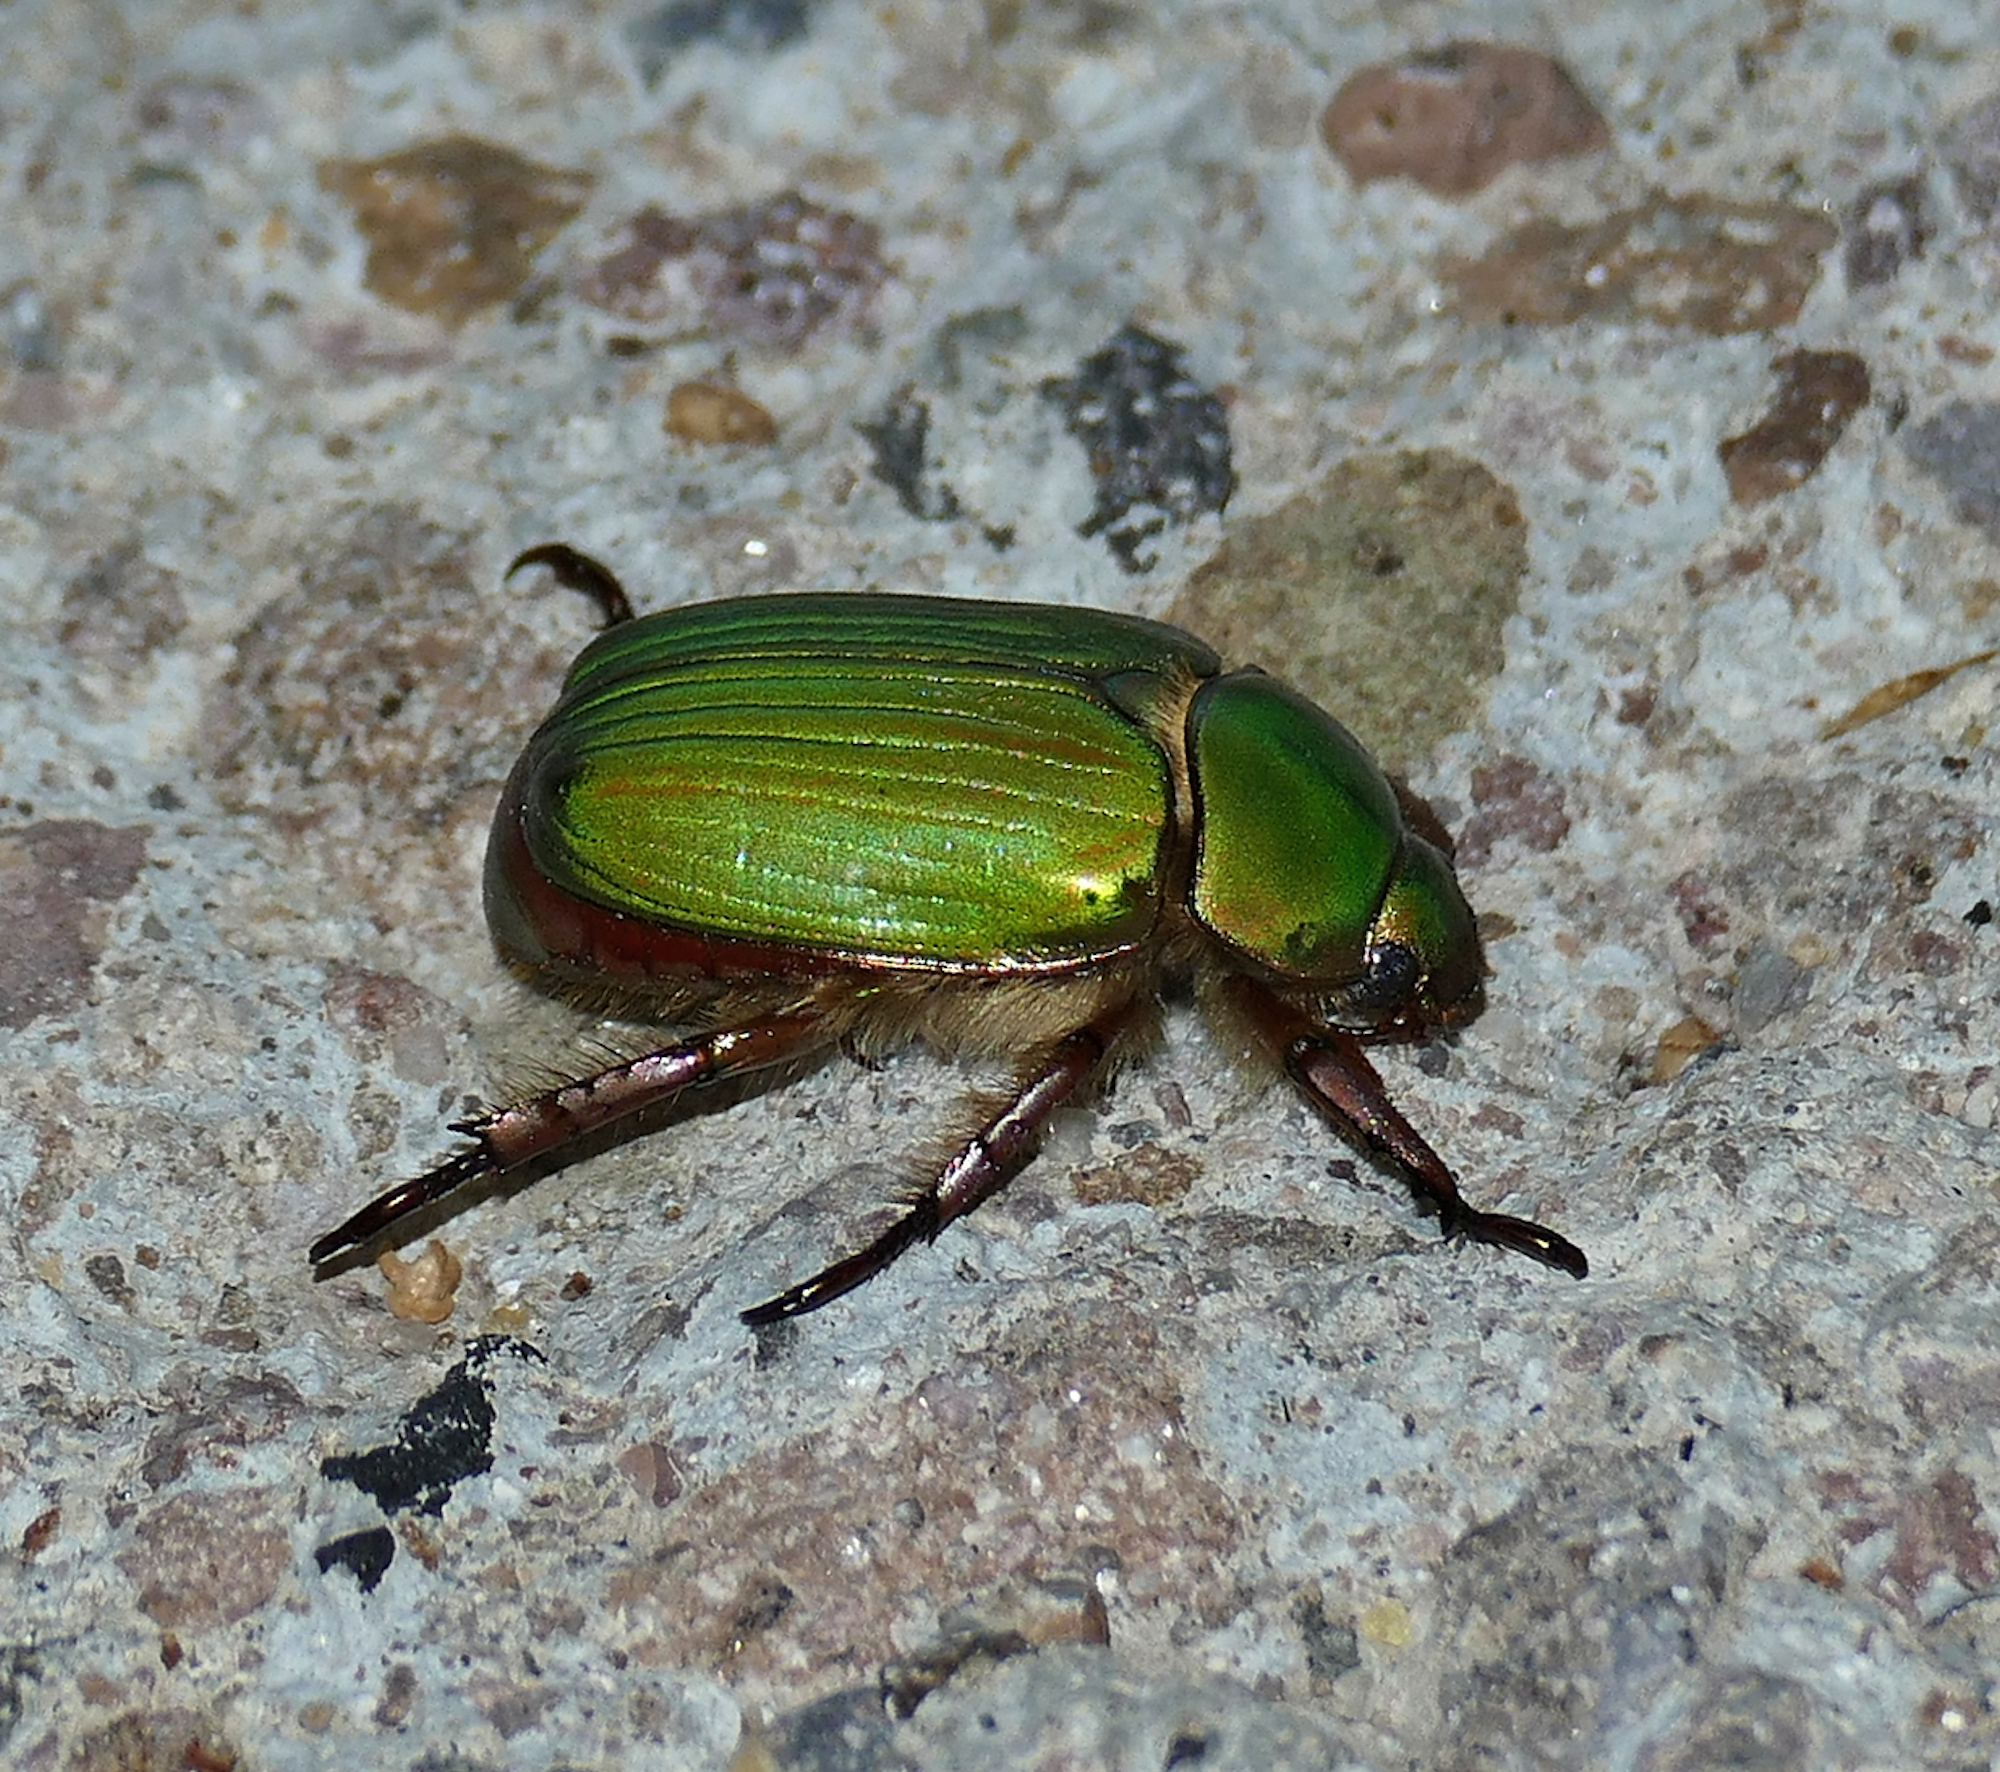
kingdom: Animalia
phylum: Arthropoda
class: Insecta
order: Coleoptera
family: Scarabaeidae
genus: Chrysina
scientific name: Chrysina lecontei
